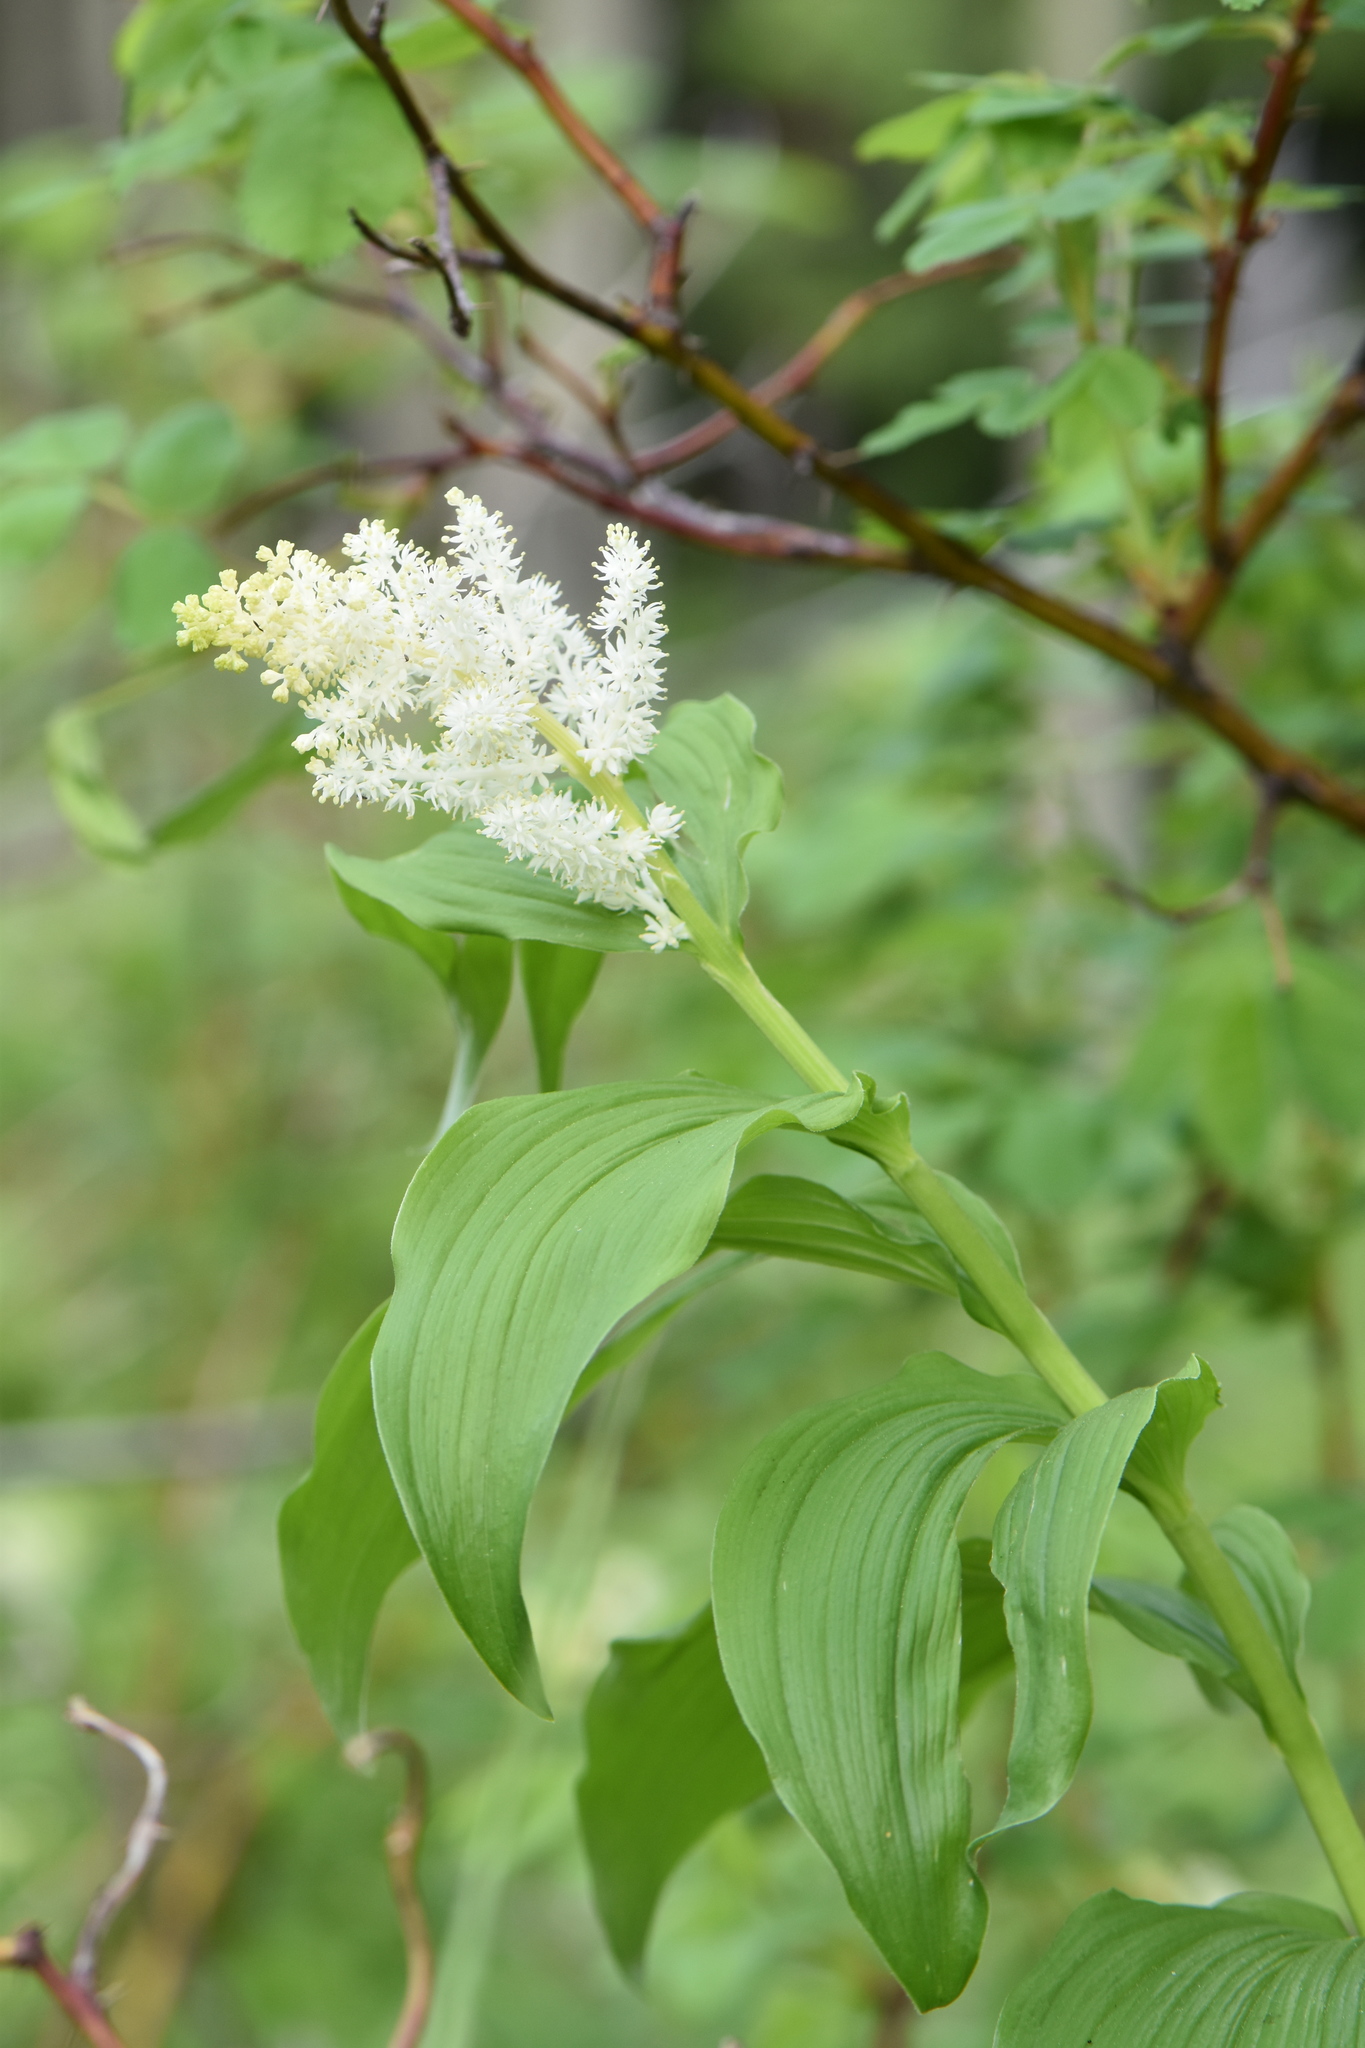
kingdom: Plantae
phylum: Tracheophyta
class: Liliopsida
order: Asparagales
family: Asparagaceae
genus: Maianthemum
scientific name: Maianthemum racemosum
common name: False spikenard
